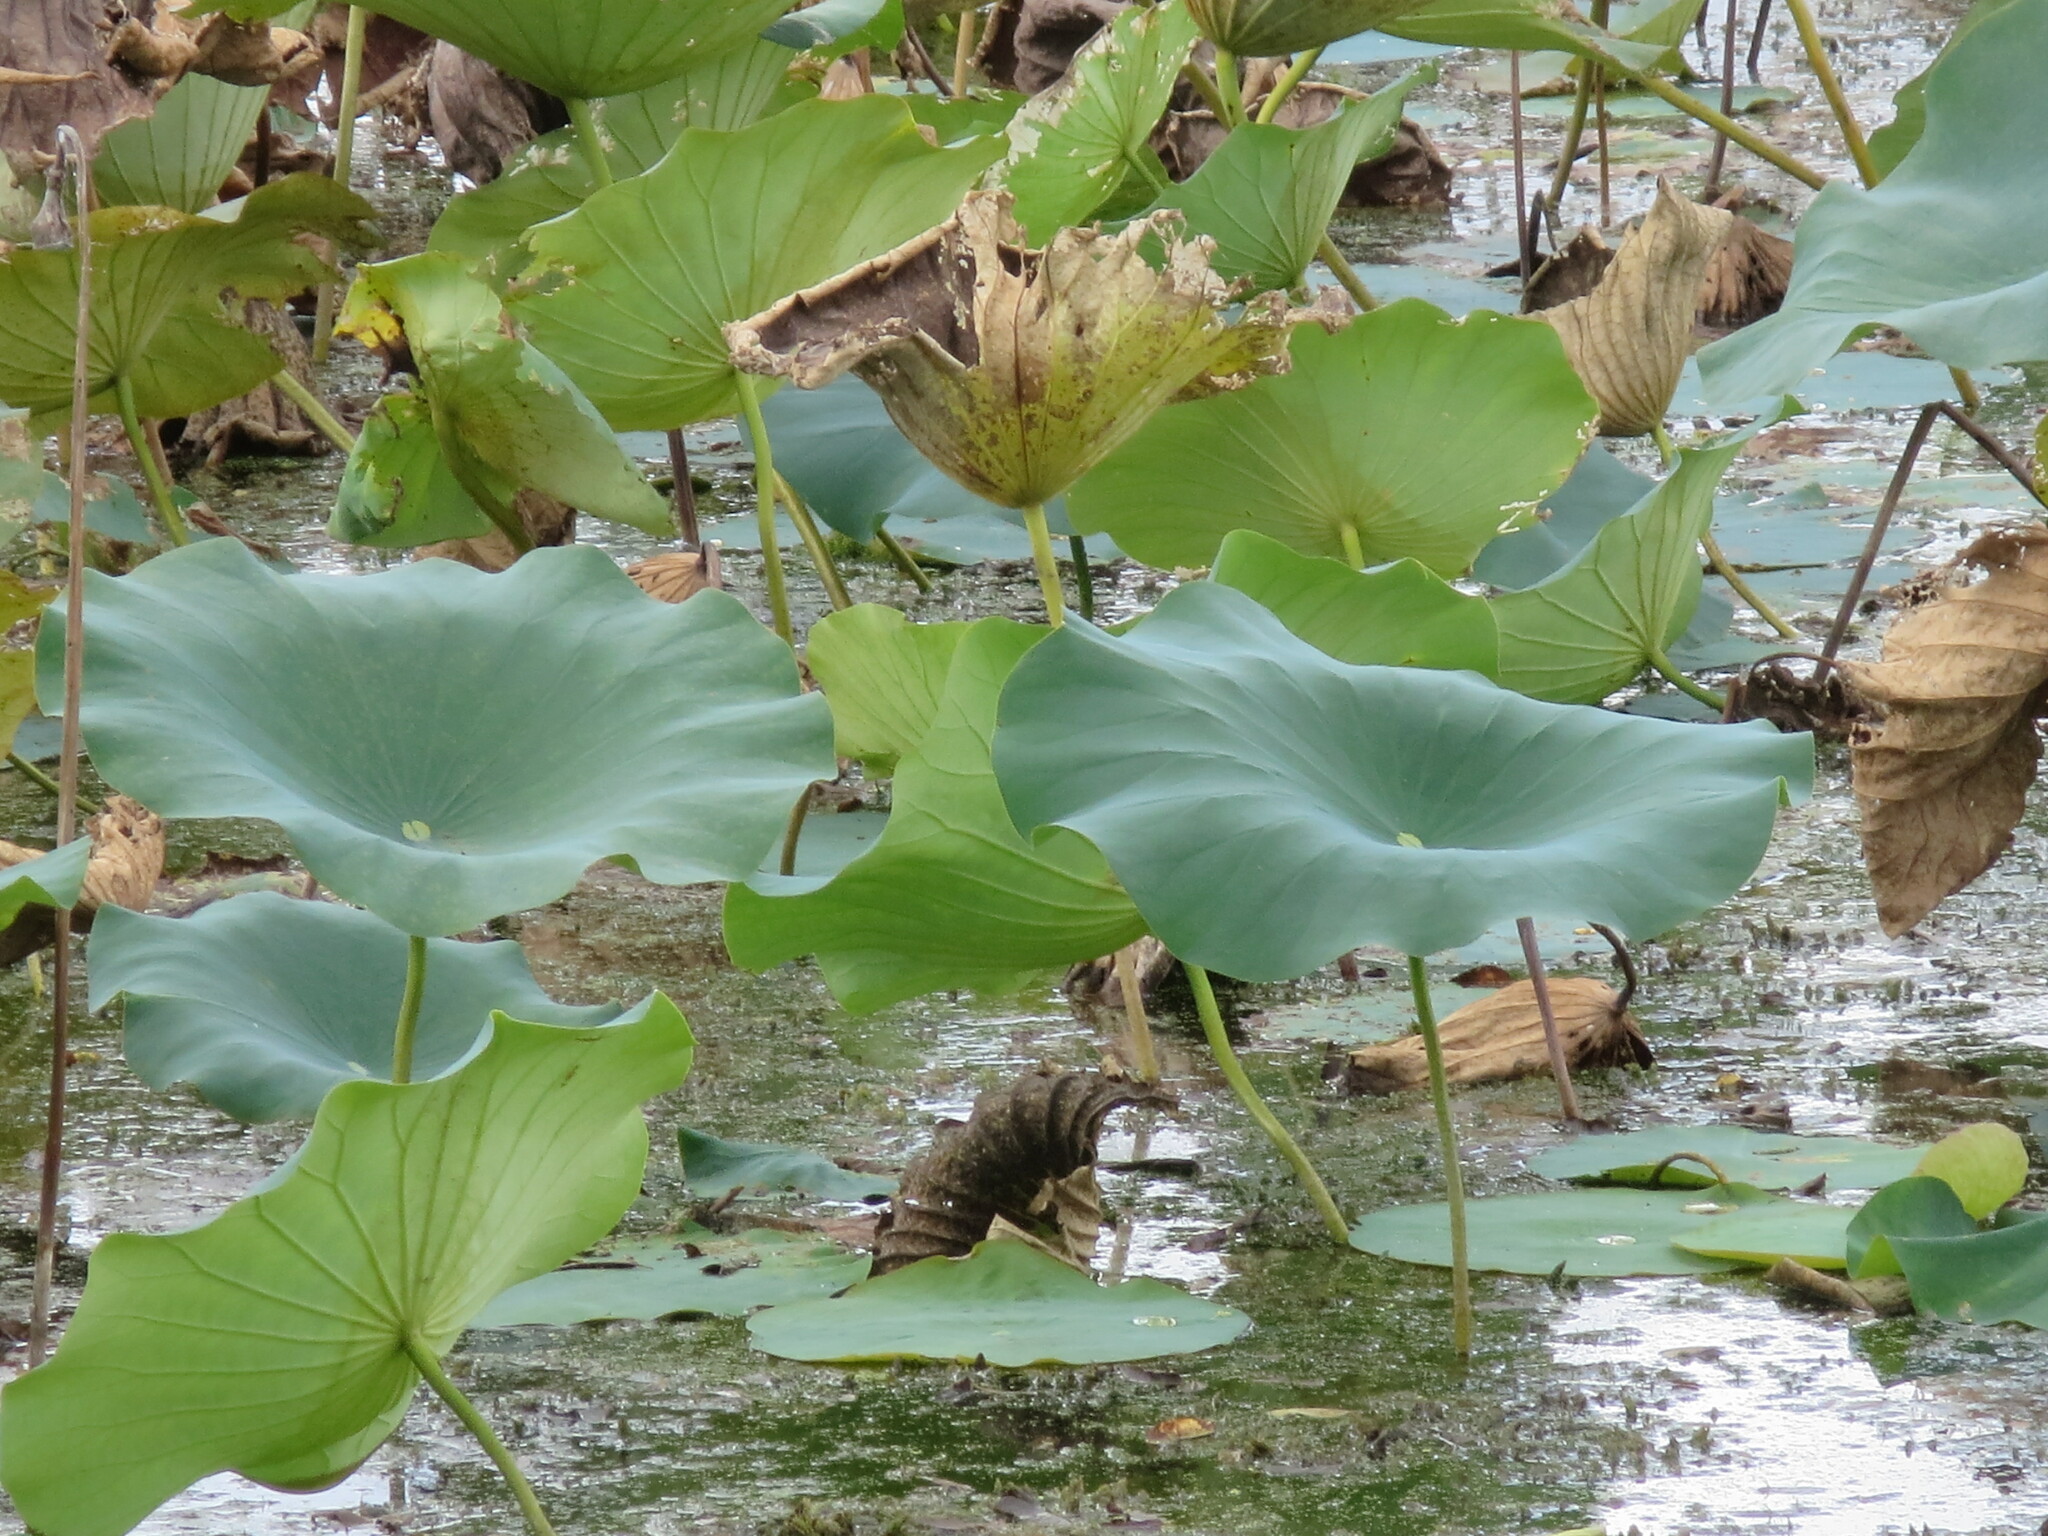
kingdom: Plantae
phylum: Tracheophyta
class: Magnoliopsida
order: Proteales
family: Nelumbonaceae
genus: Nelumbo
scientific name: Nelumbo lutea
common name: American lotus
